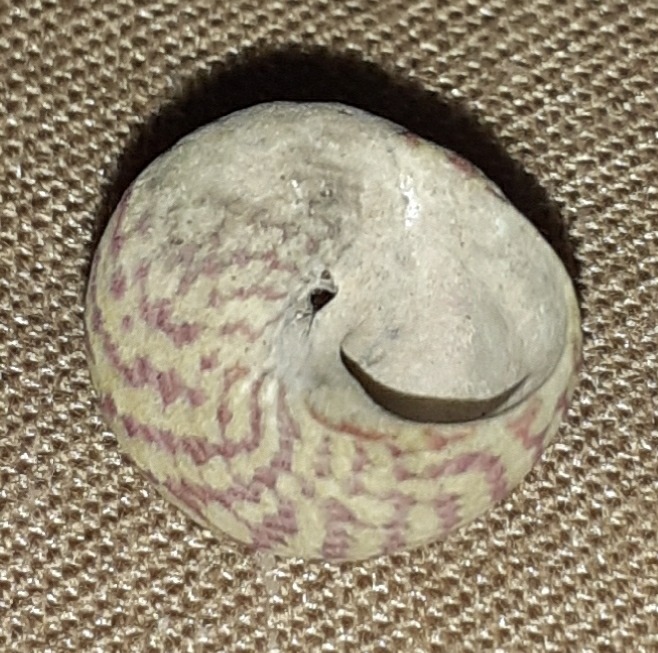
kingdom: Animalia
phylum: Mollusca
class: Gastropoda
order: Trochida
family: Trochidae
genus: Steromphala
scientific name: Steromphala umbilicalis
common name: Flat top shell
